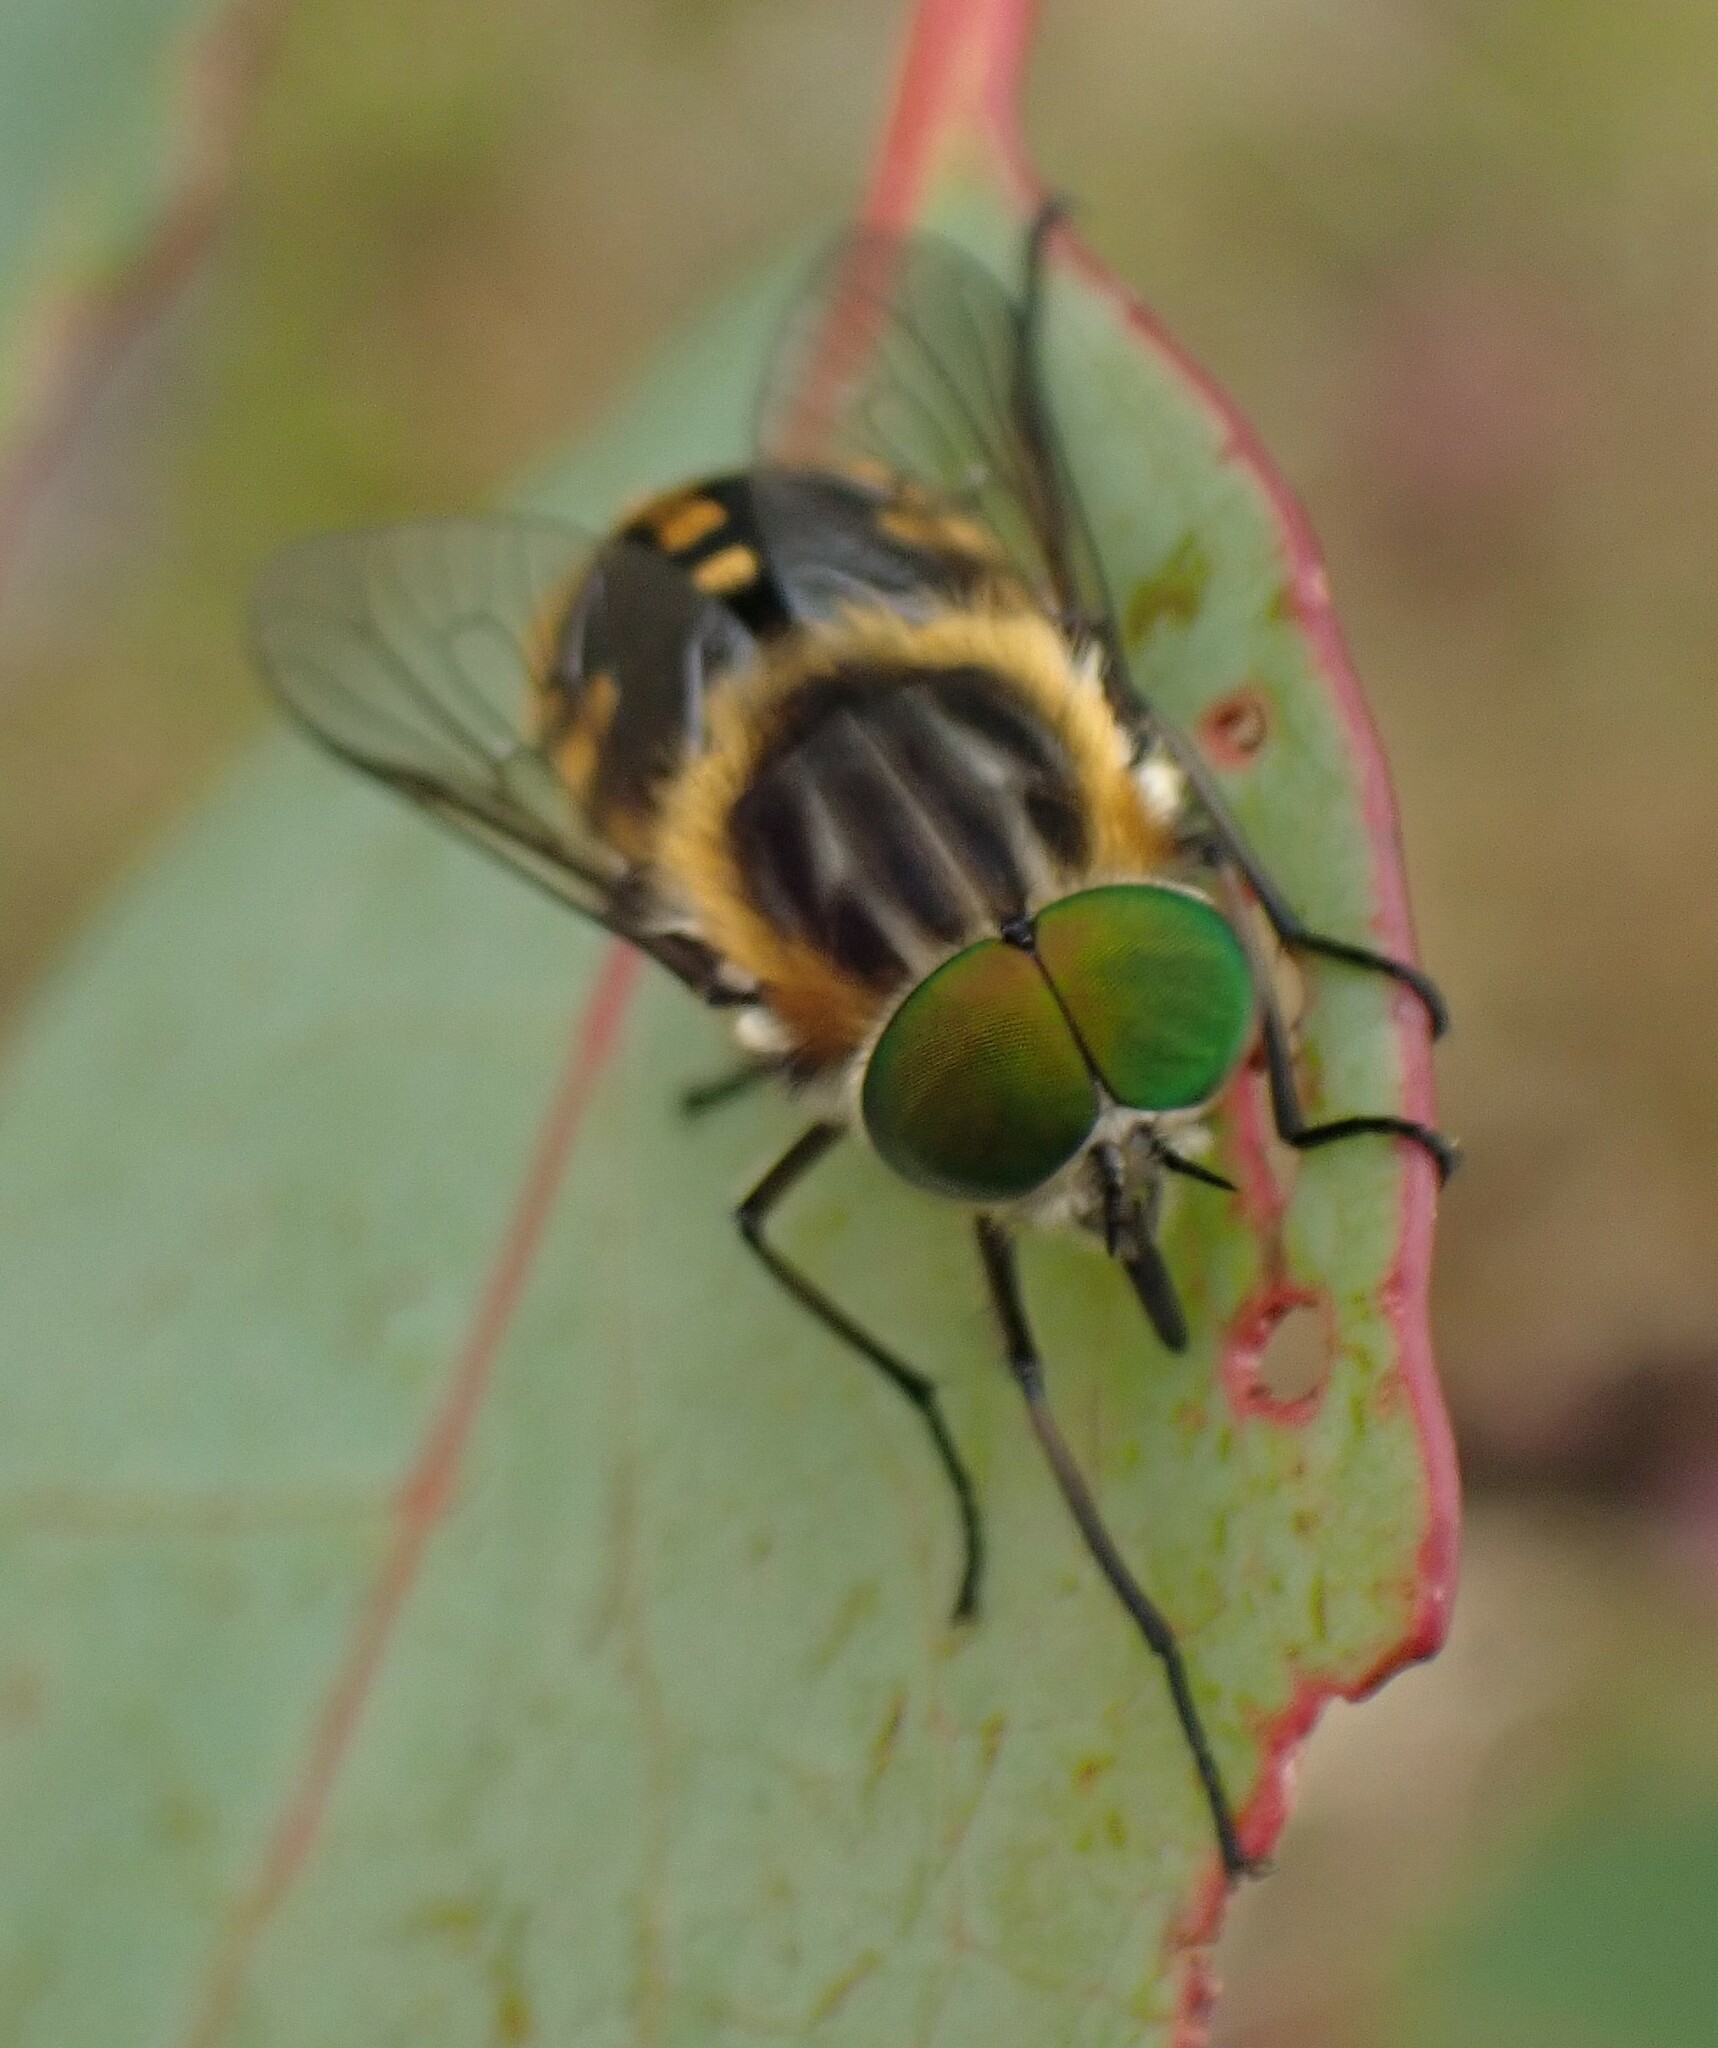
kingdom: Animalia
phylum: Arthropoda
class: Insecta
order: Diptera
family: Tabanidae
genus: Scaptia
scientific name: Scaptia auriflua
